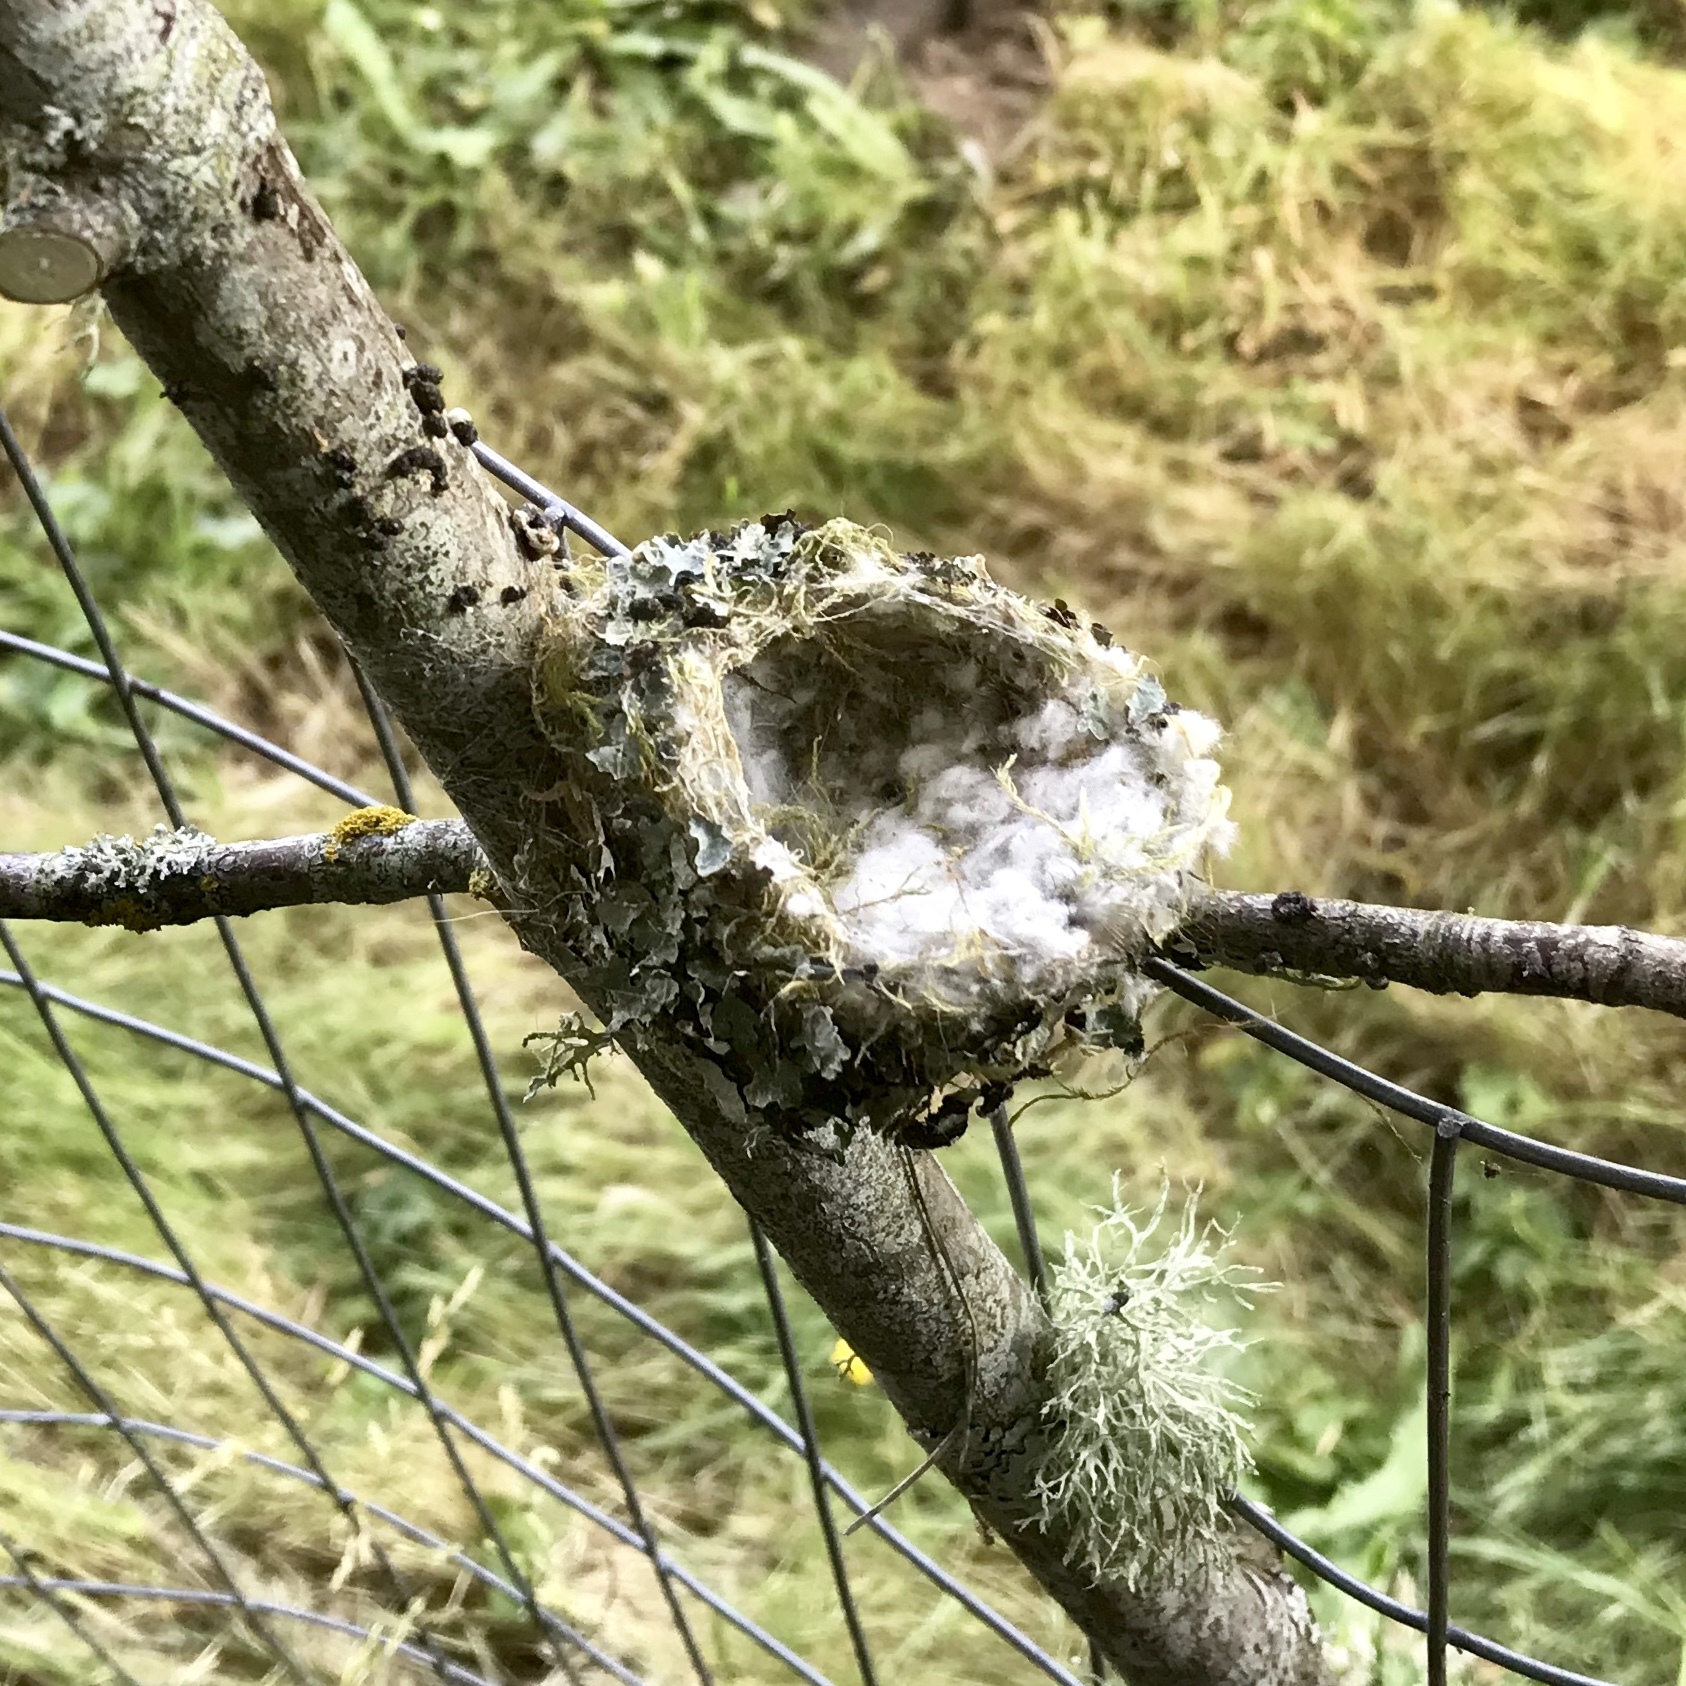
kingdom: Animalia
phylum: Chordata
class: Aves
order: Apodiformes
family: Trochilidae
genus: Selasphorus
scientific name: Selasphorus rufus
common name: Rufous hummingbird
